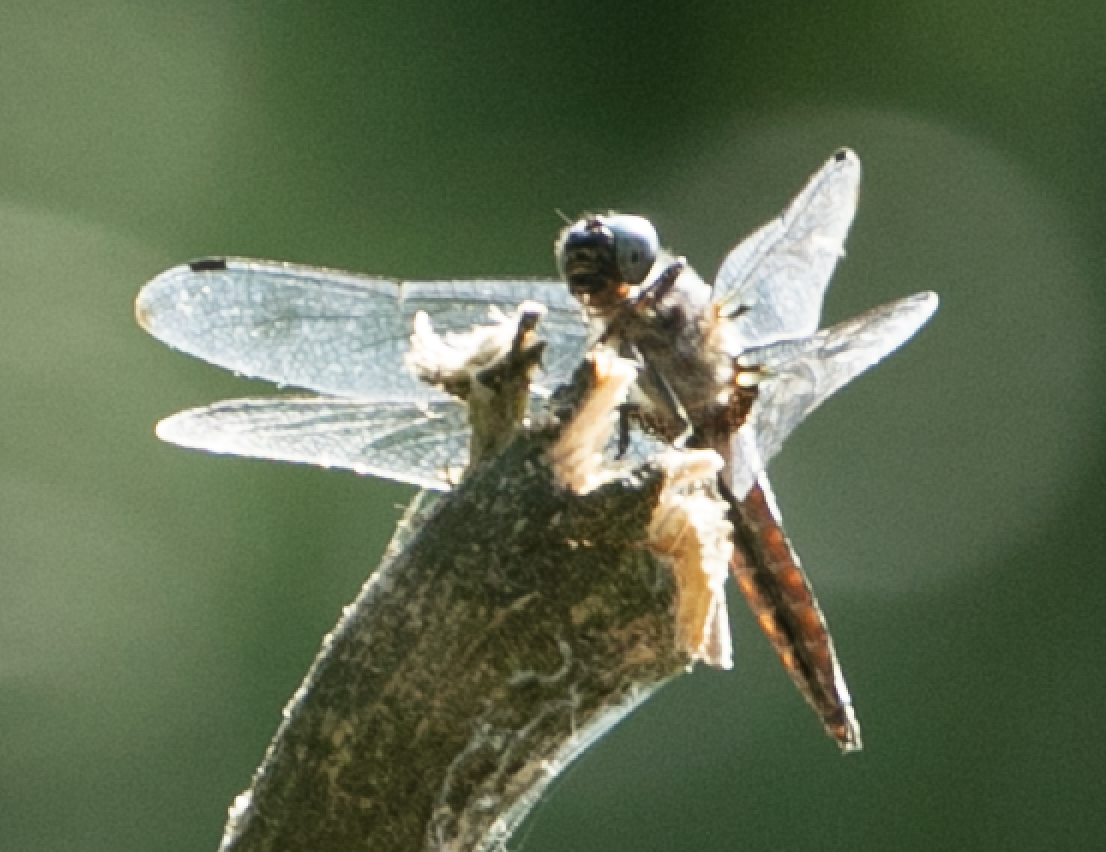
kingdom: Animalia
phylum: Arthropoda
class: Insecta
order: Odonata
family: Libellulidae
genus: Libellula
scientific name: Libellula fulva
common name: Blue chaser
